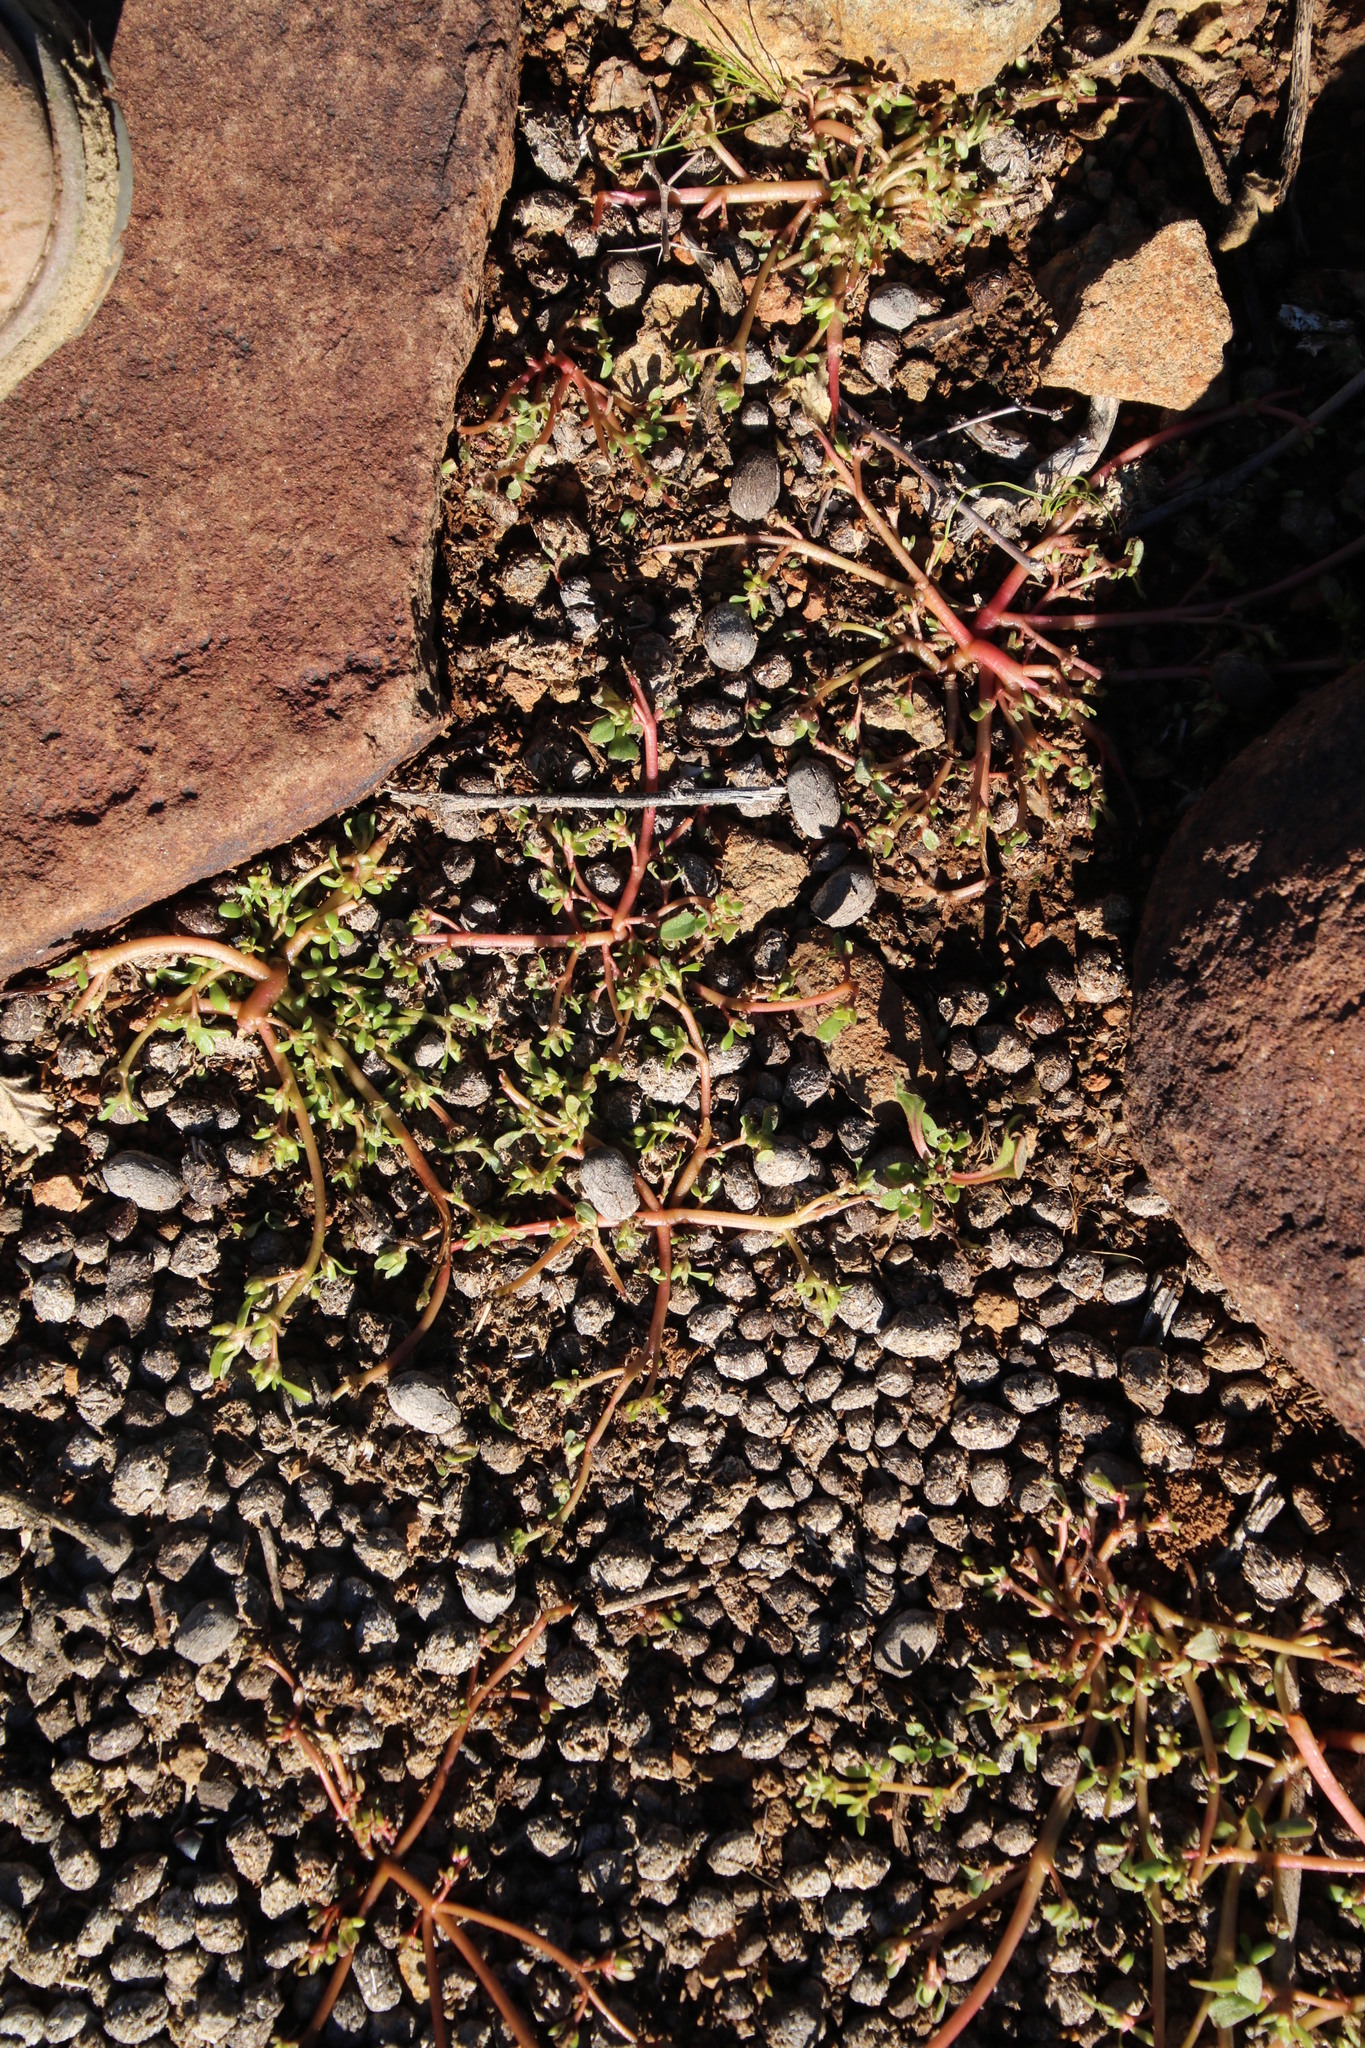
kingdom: Plantae
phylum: Tracheophyta
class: Magnoliopsida
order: Caryophyllales
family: Portulacaceae
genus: Portulaca
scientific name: Portulaca oleracea
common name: Common purslane
